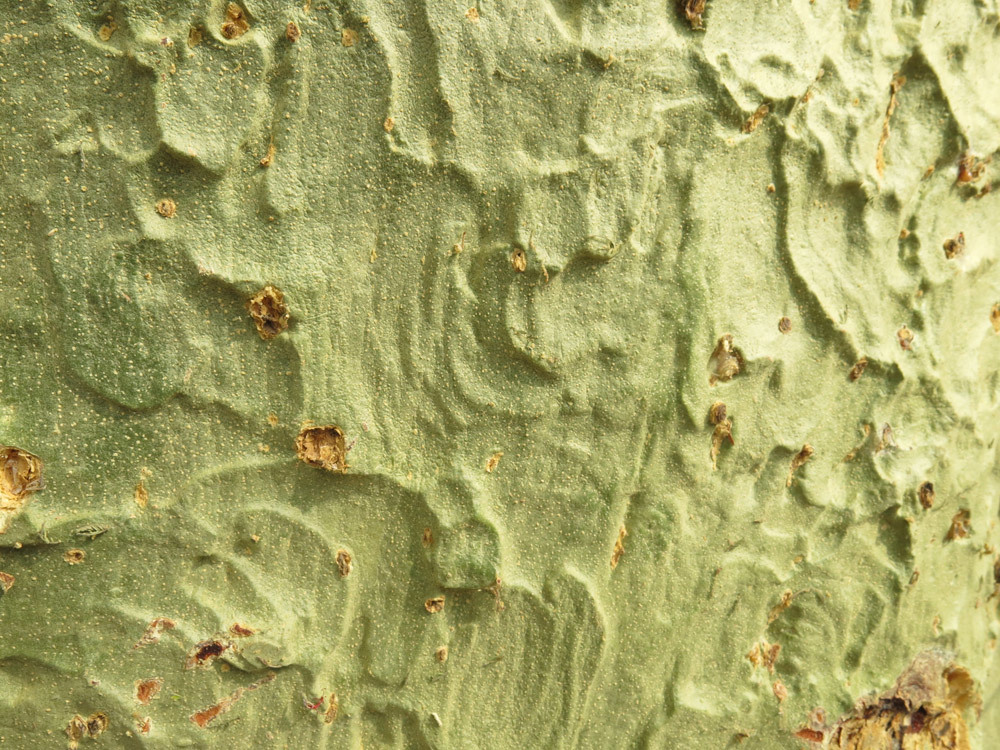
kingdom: Plantae
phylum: Tracheophyta
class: Magnoliopsida
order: Fabales
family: Fabaceae
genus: Vachellia
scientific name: Vachellia xanthophloea
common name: Fever tree
